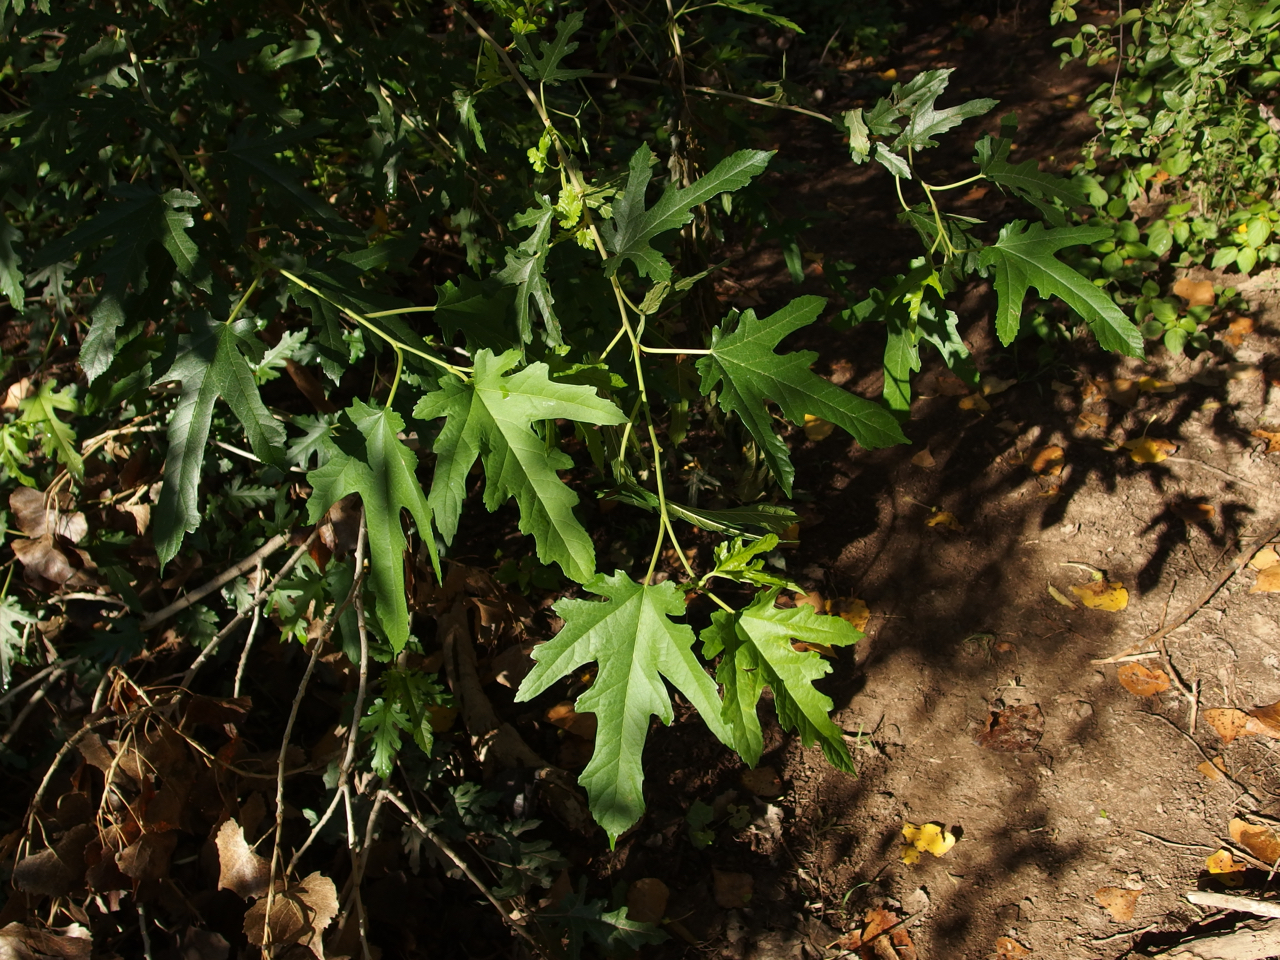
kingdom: Plantae
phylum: Tracheophyta
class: Magnoliopsida
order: Rosales
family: Moraceae
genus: Morus
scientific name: Morus alba
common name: White mulberry
